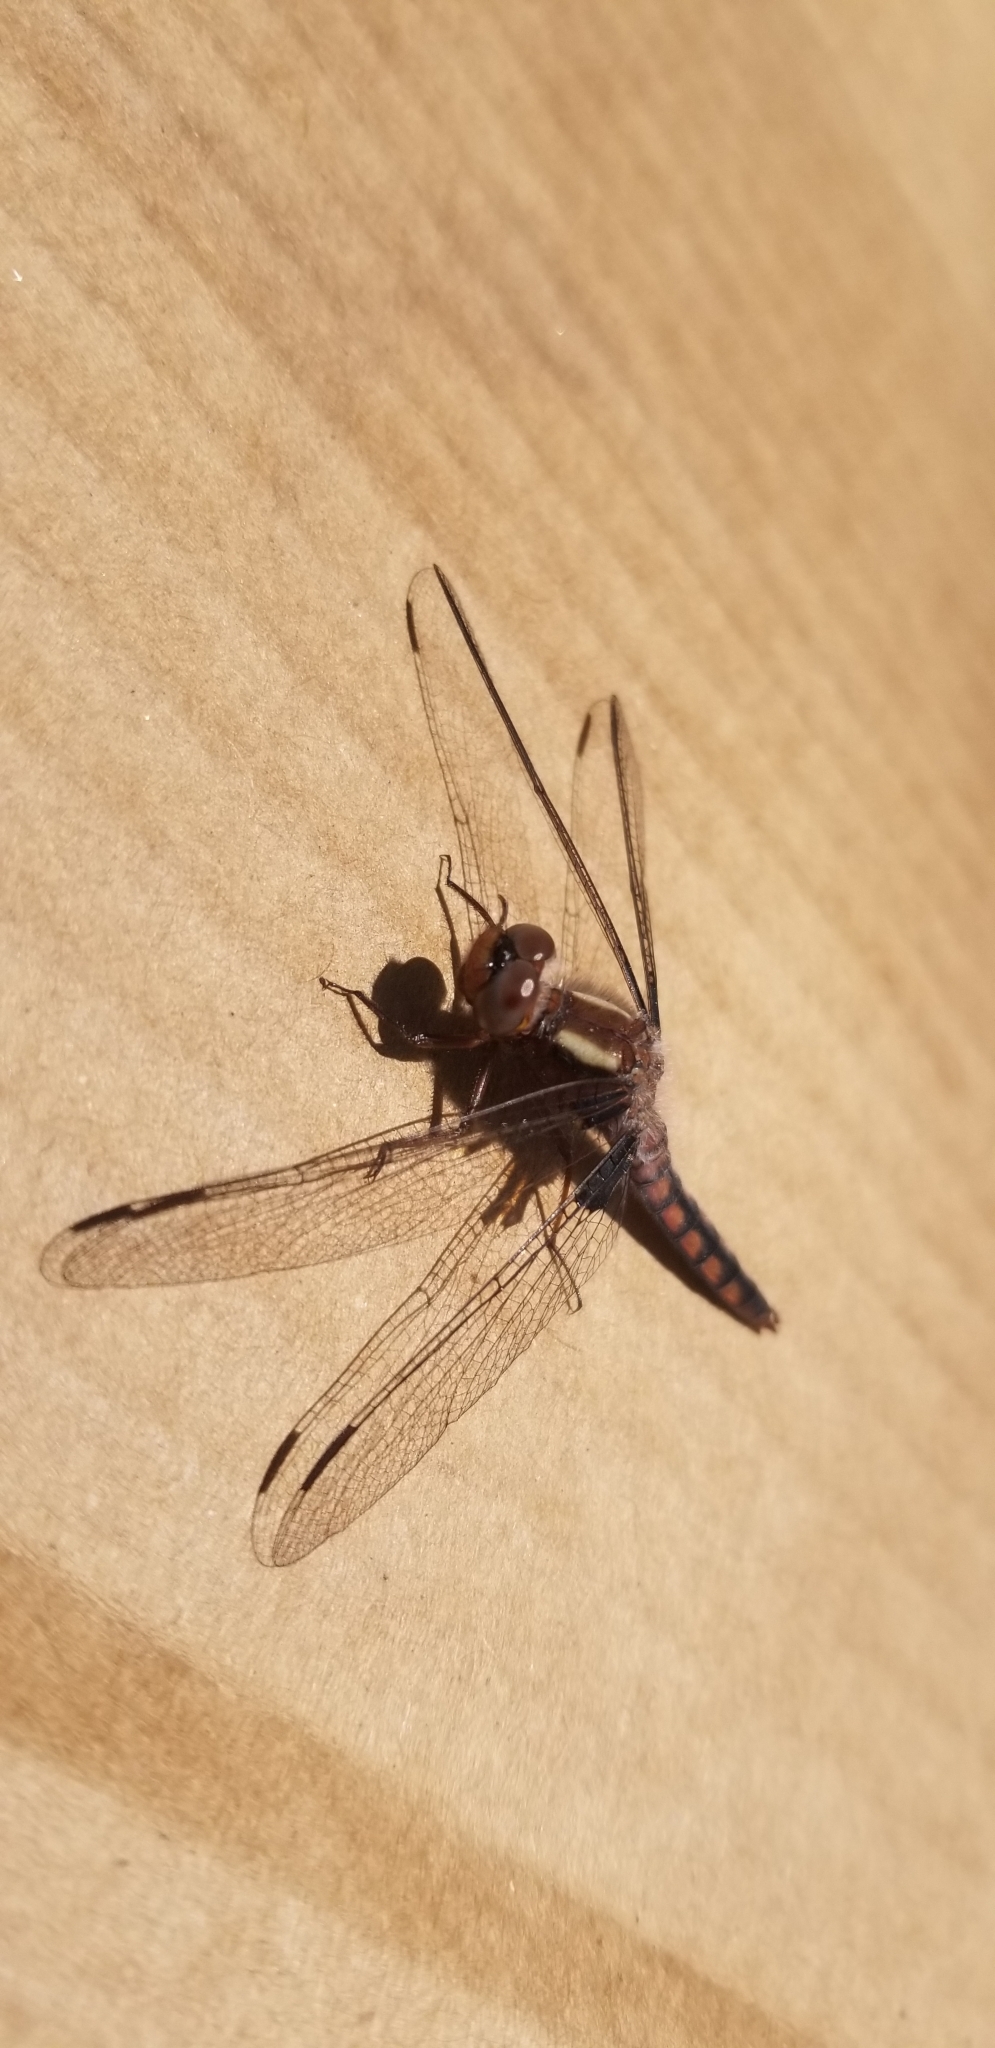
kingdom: Animalia
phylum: Arthropoda
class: Insecta
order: Odonata
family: Libellulidae
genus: Ladona
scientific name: Ladona deplanata
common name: Blue corporal
